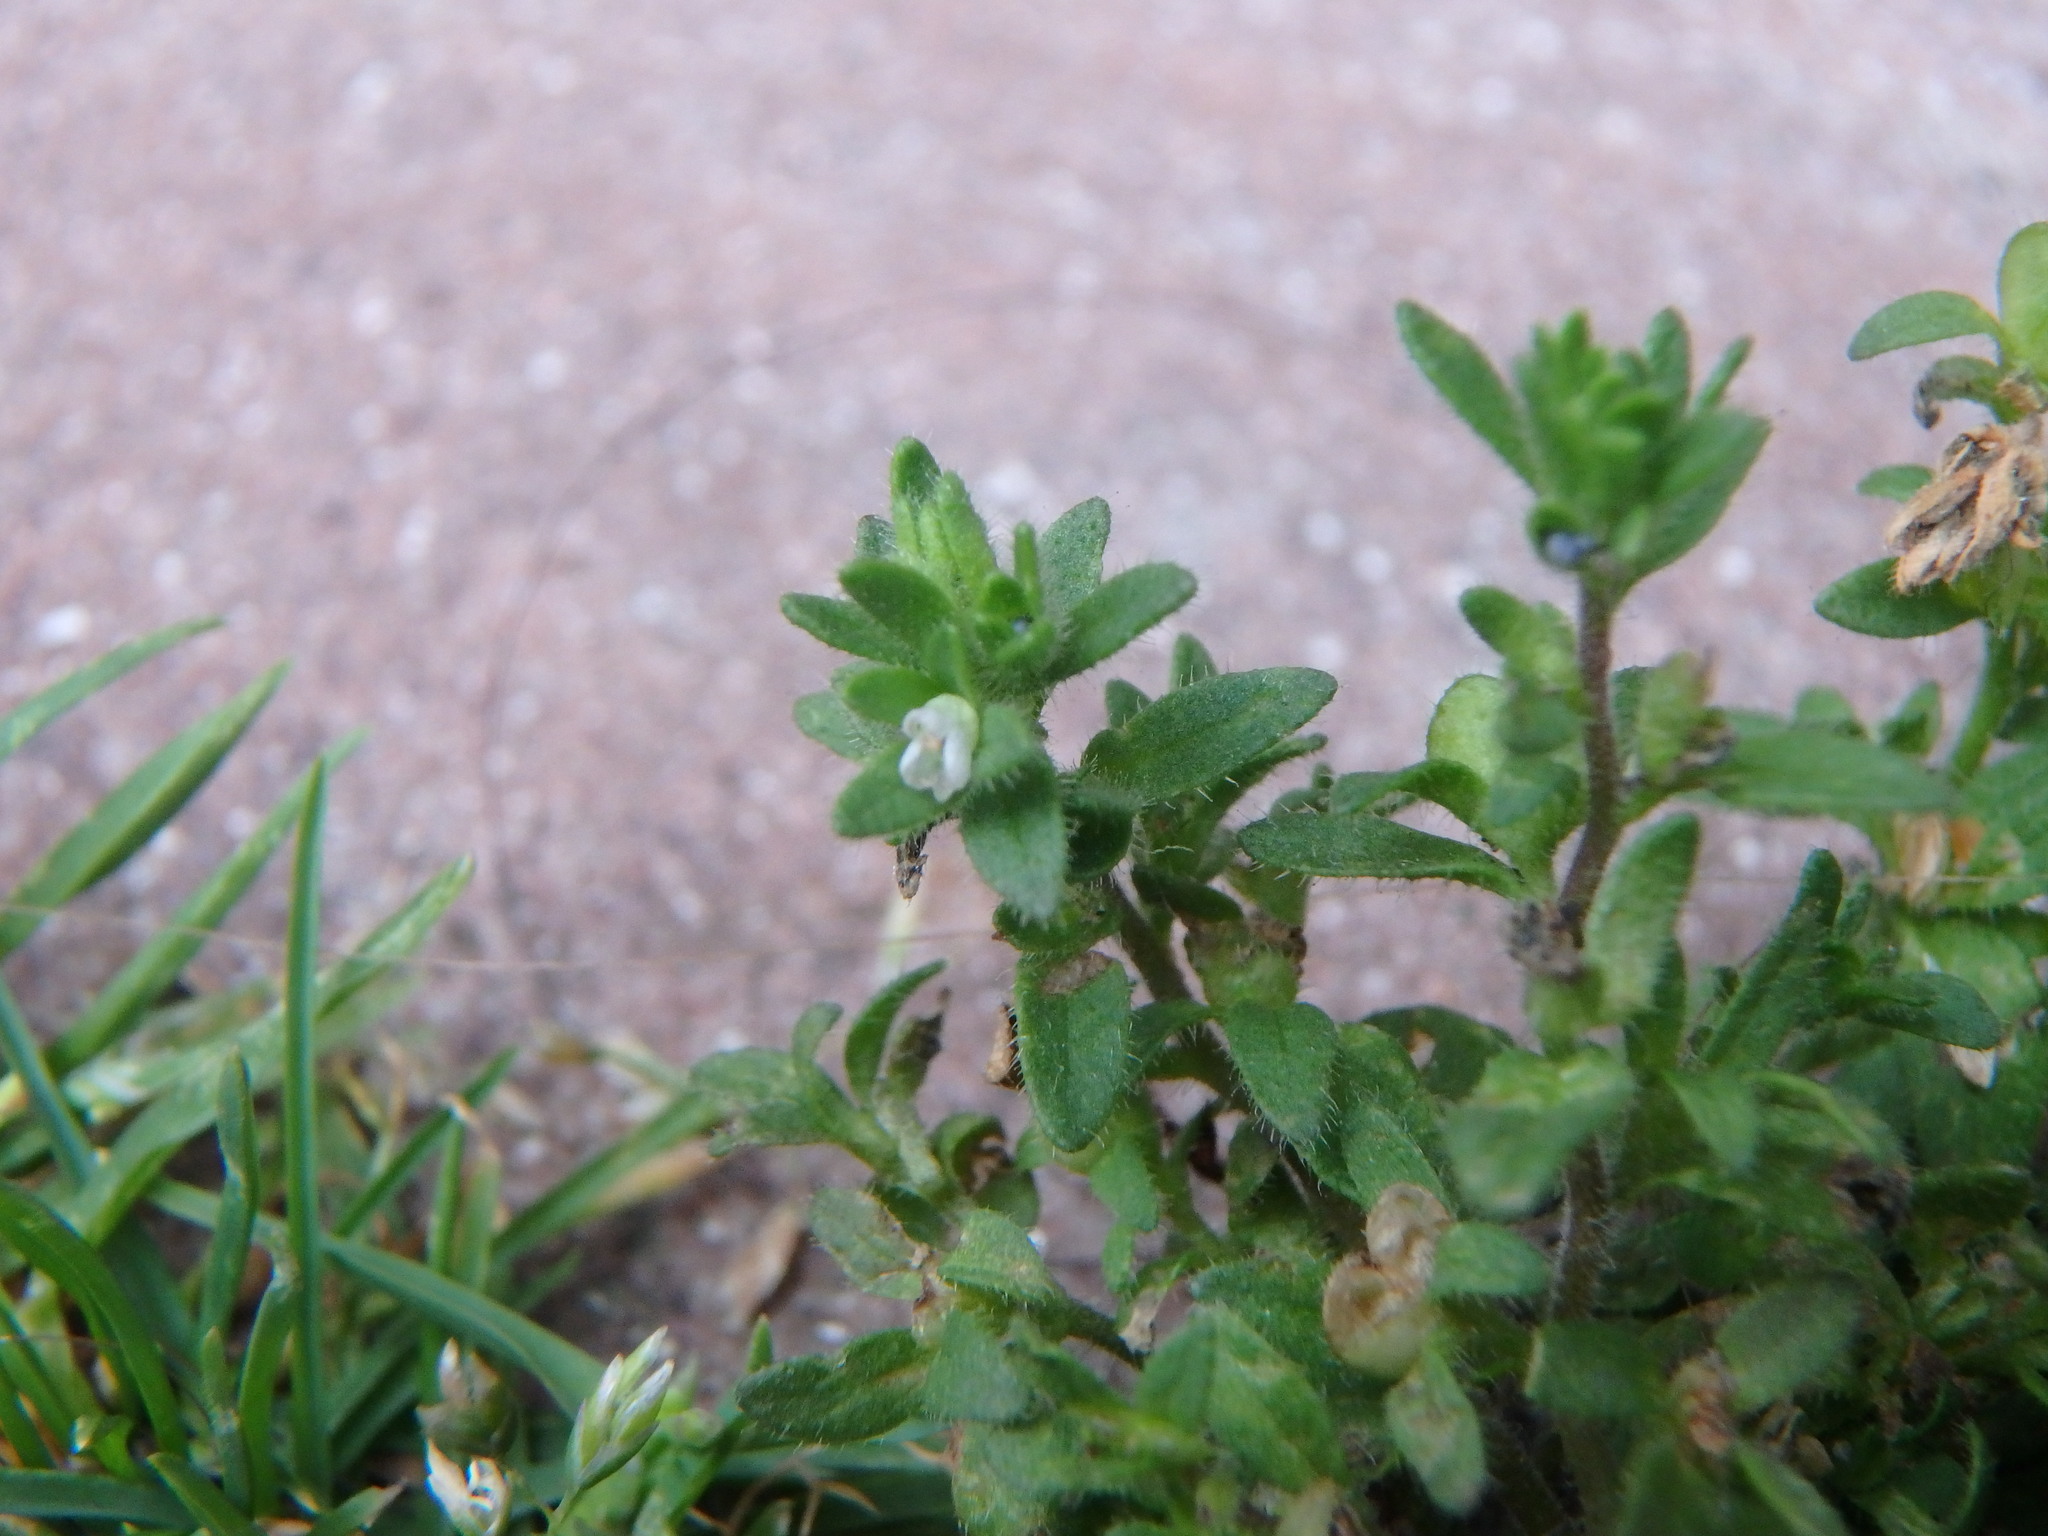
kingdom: Plantae
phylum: Tracheophyta
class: Magnoliopsida
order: Lamiales
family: Plantaginaceae
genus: Veronica
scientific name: Veronica arvensis
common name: Corn speedwell
